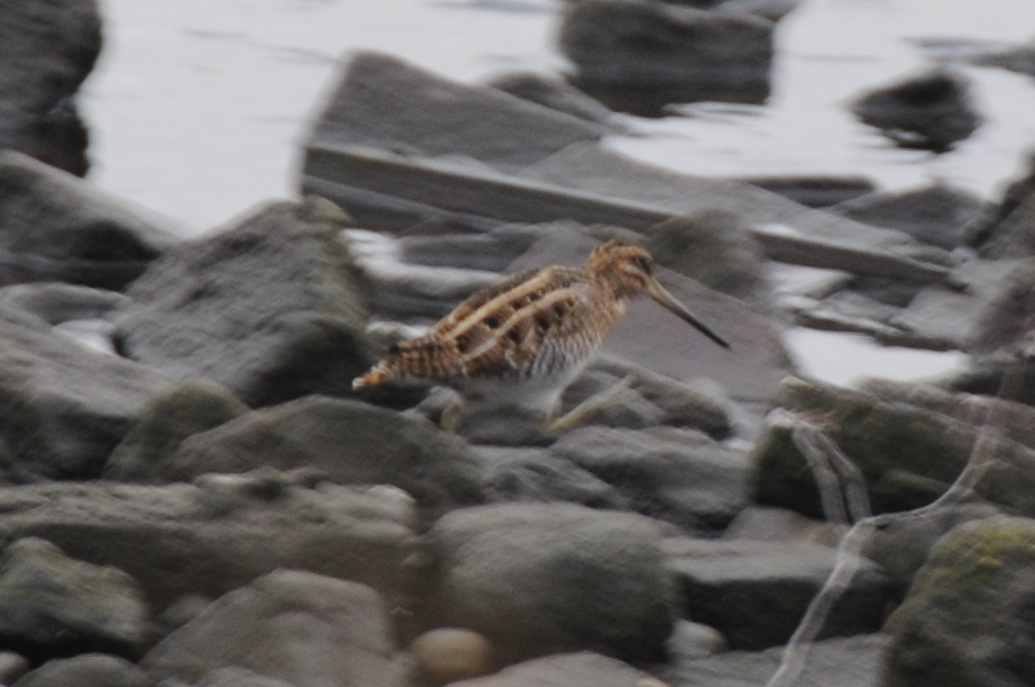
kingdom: Animalia
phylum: Chordata
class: Aves
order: Charadriiformes
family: Scolopacidae
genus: Gallinago
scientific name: Gallinago delicata
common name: Wilson's snipe
